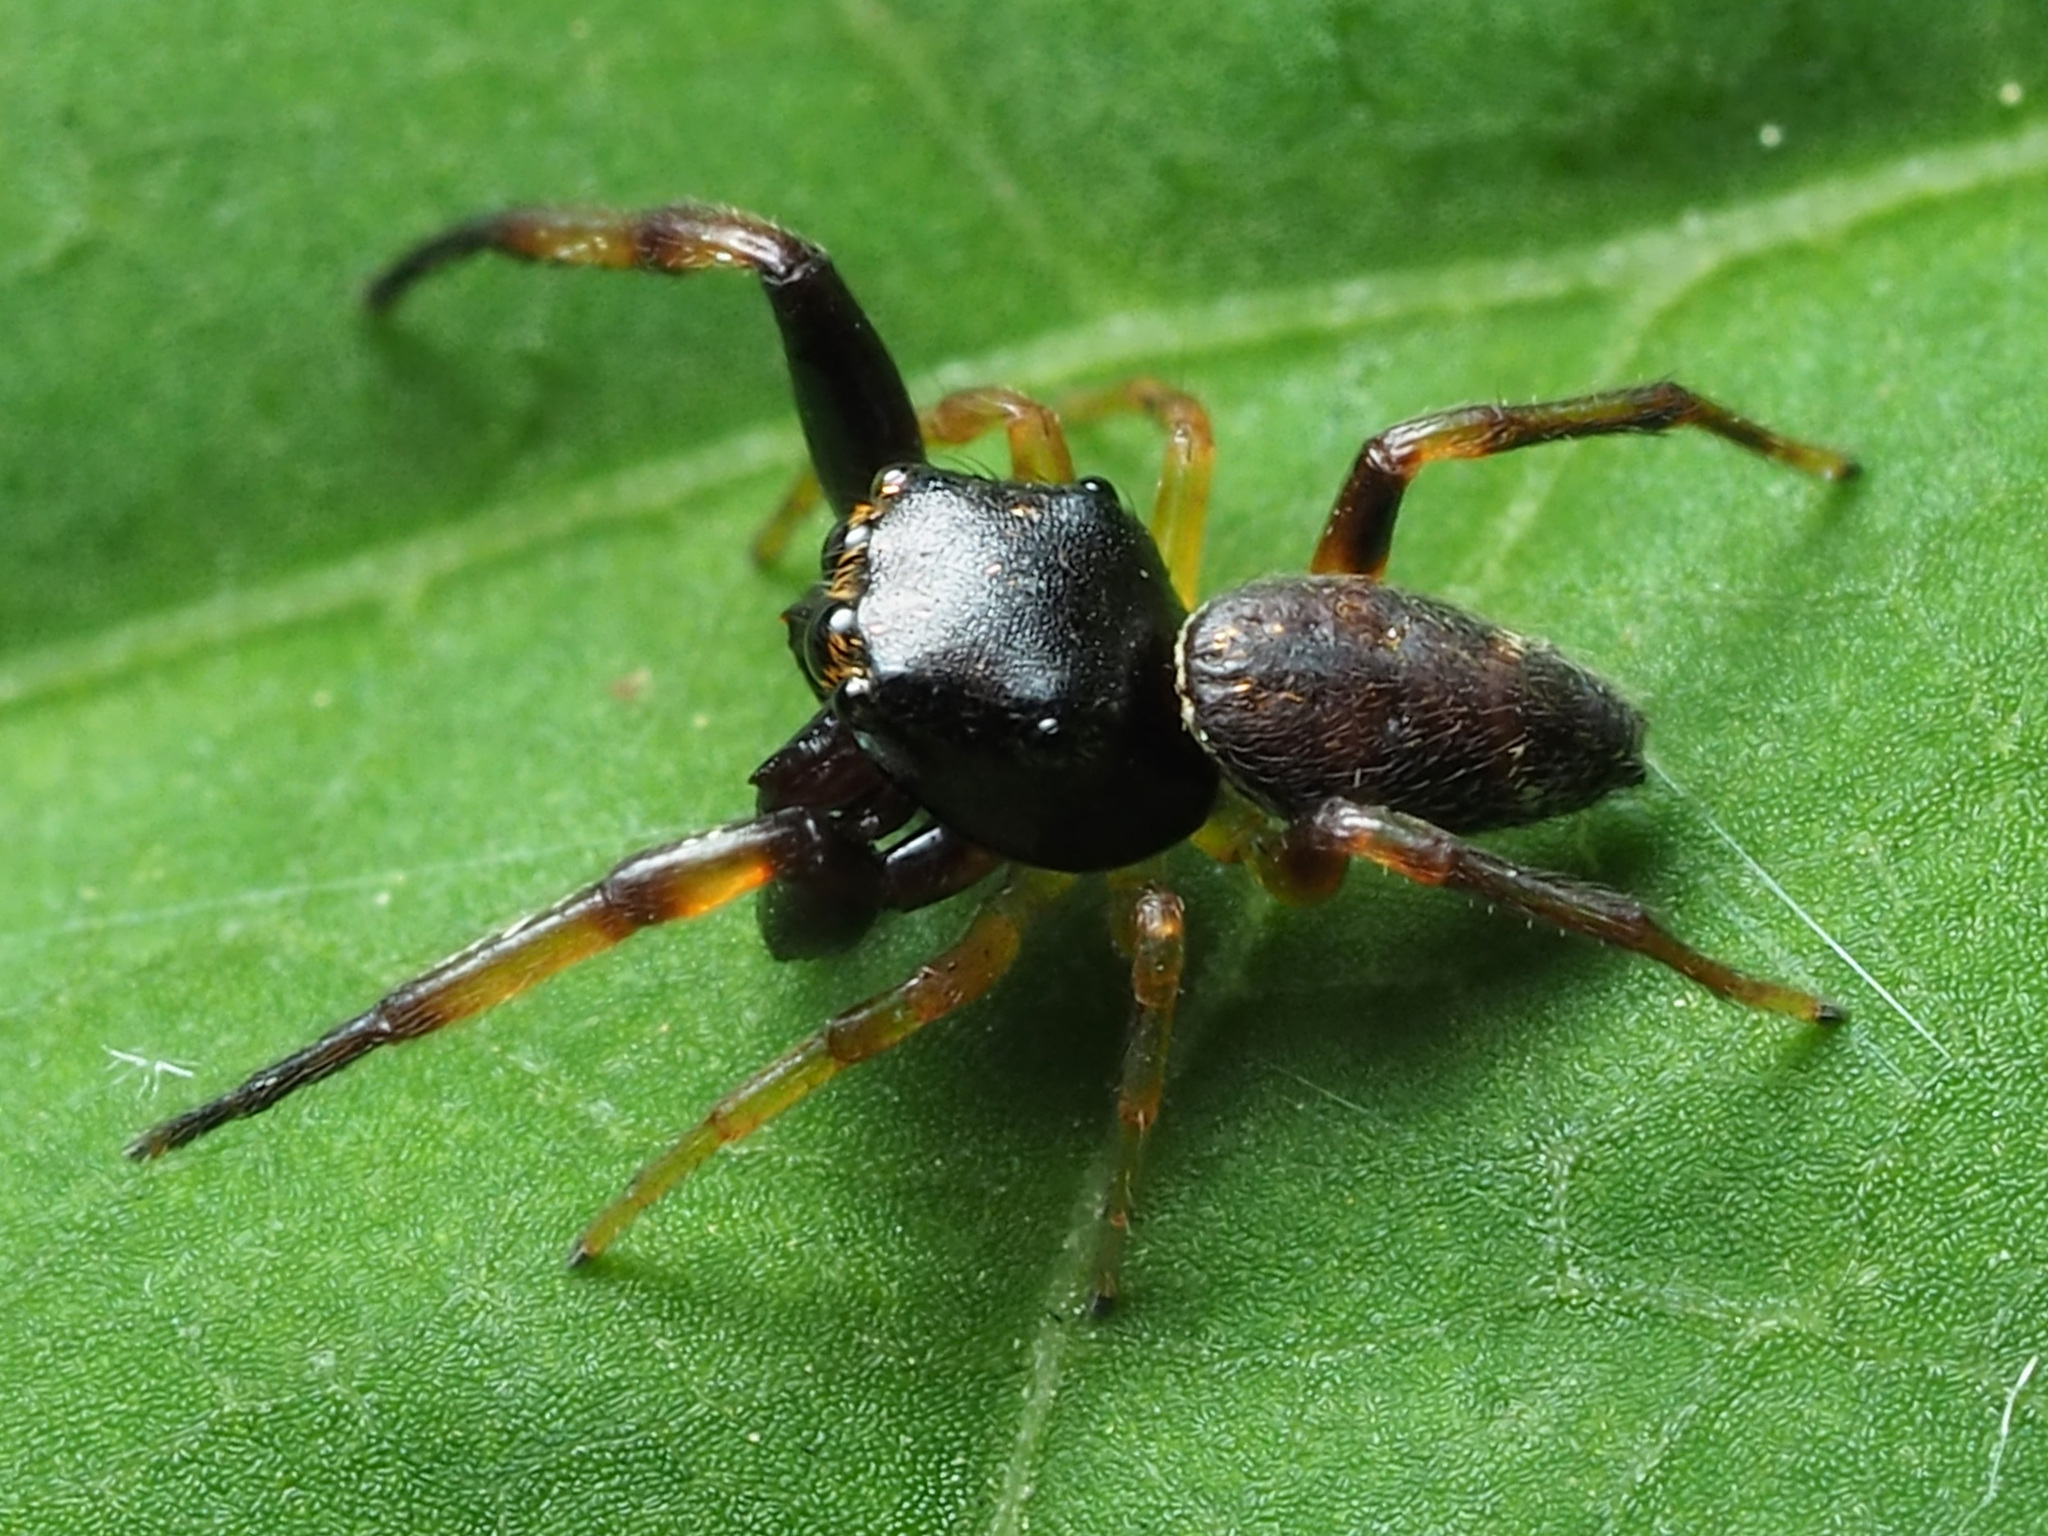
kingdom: Animalia
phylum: Arthropoda
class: Arachnida
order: Araneae
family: Salticidae
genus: Zygoballus
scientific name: Zygoballus rufipes
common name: Jumping spiders
